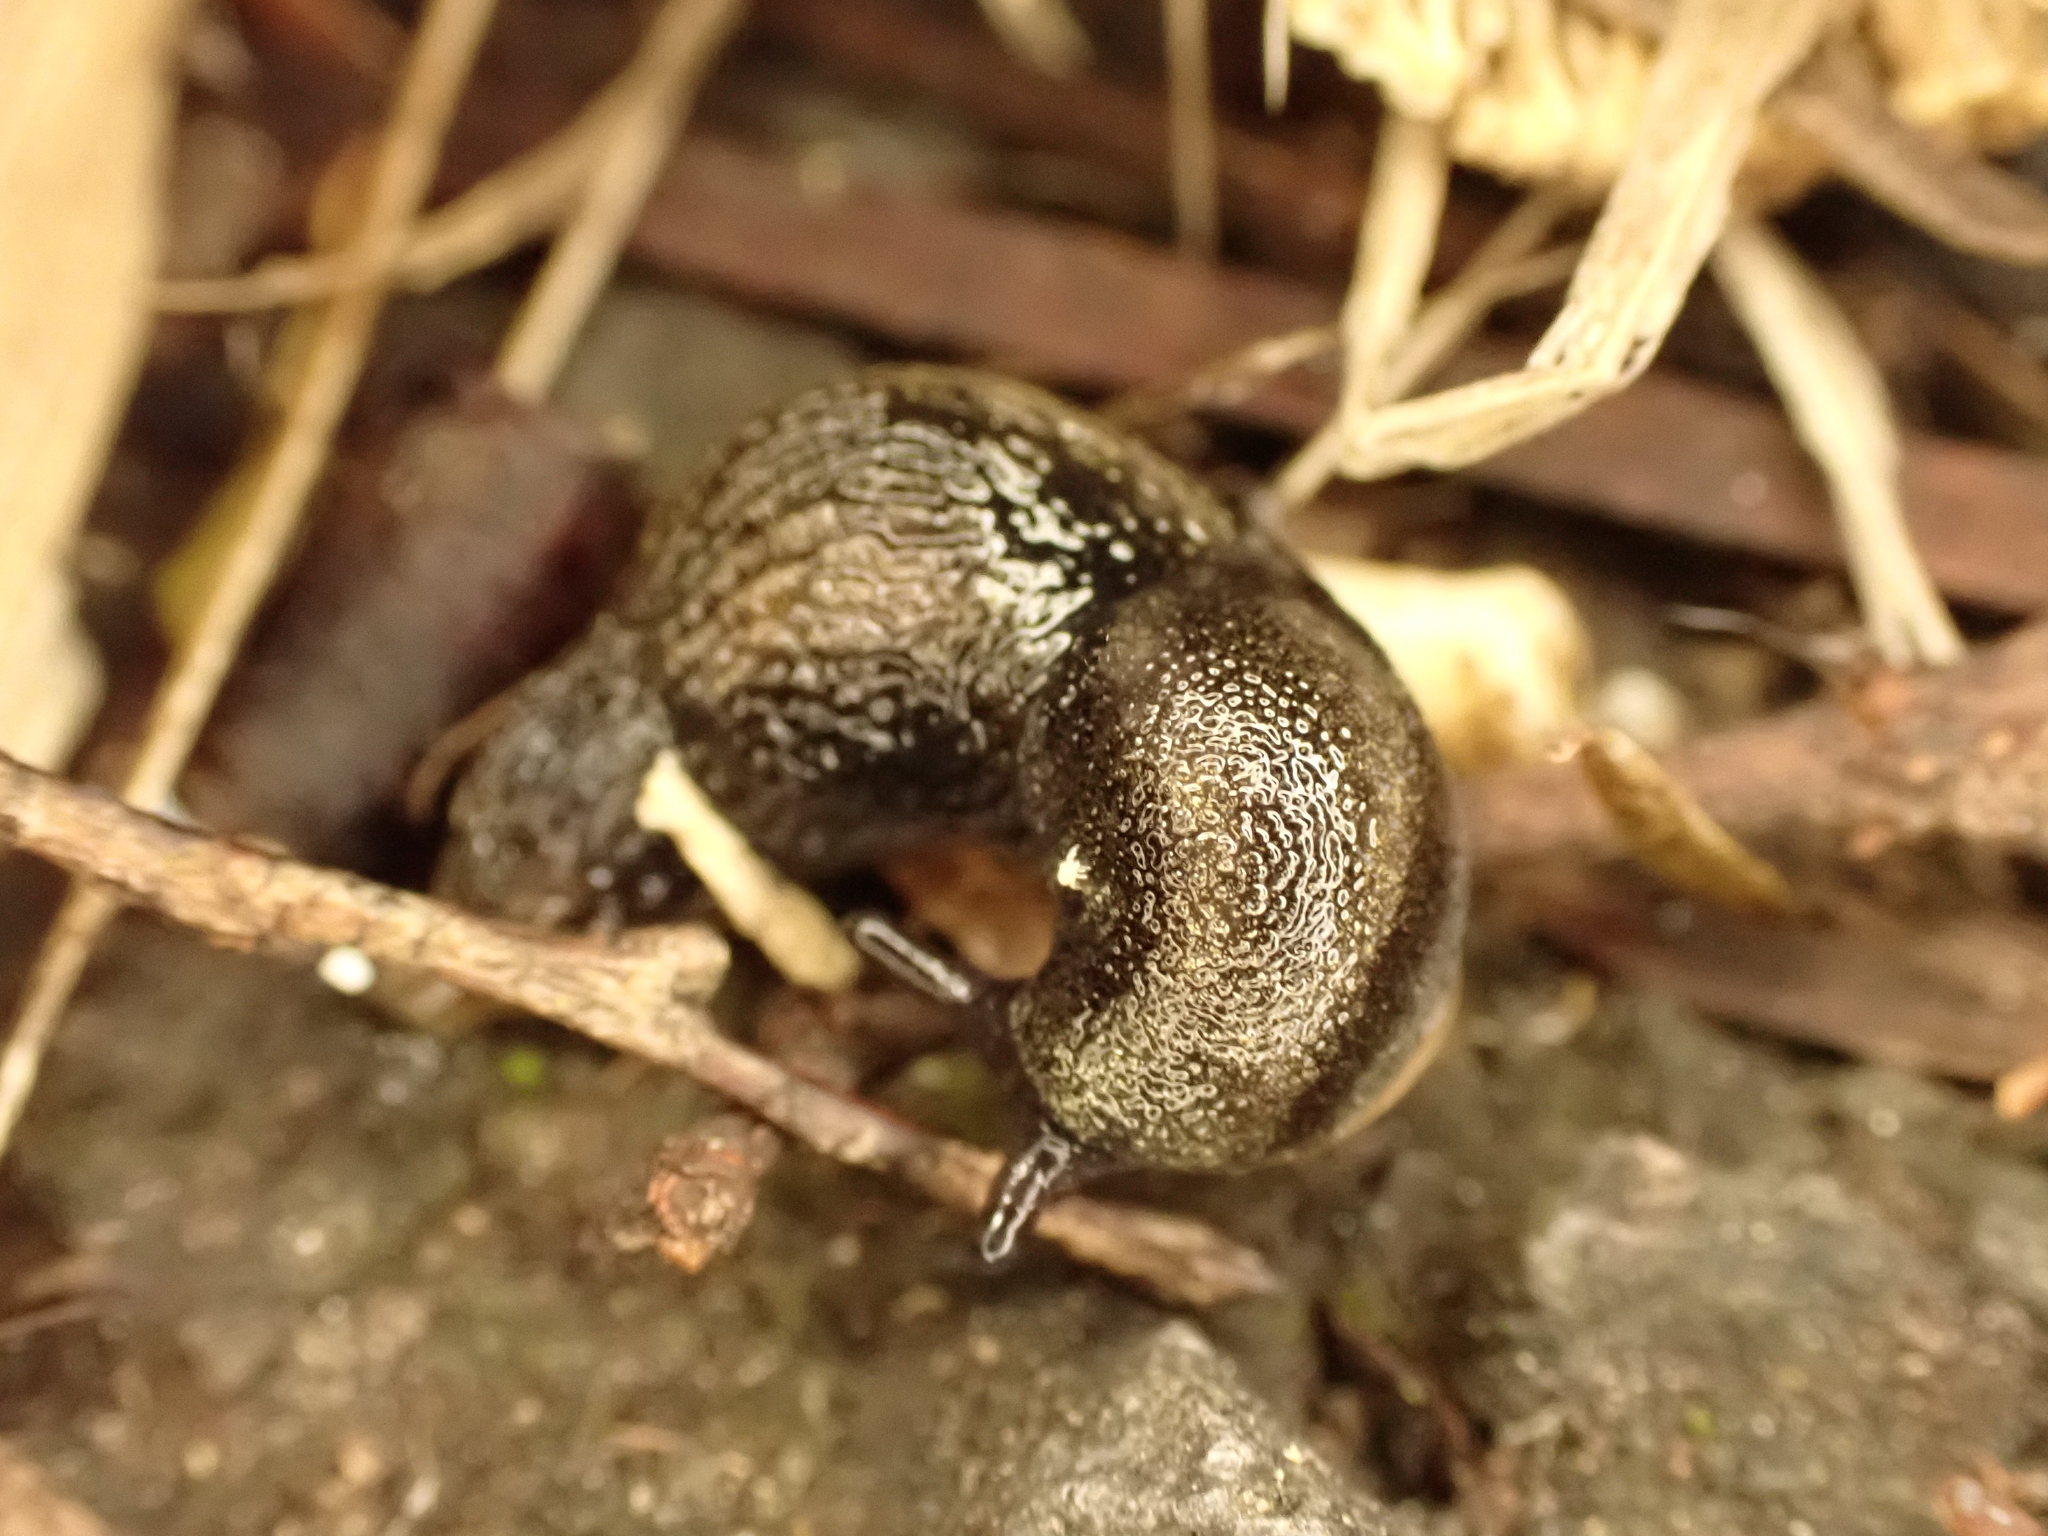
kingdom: Animalia
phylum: Mollusca
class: Gastropoda
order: Stylommatophora
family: Arionidae
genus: Kobeltia
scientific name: Kobeltia
